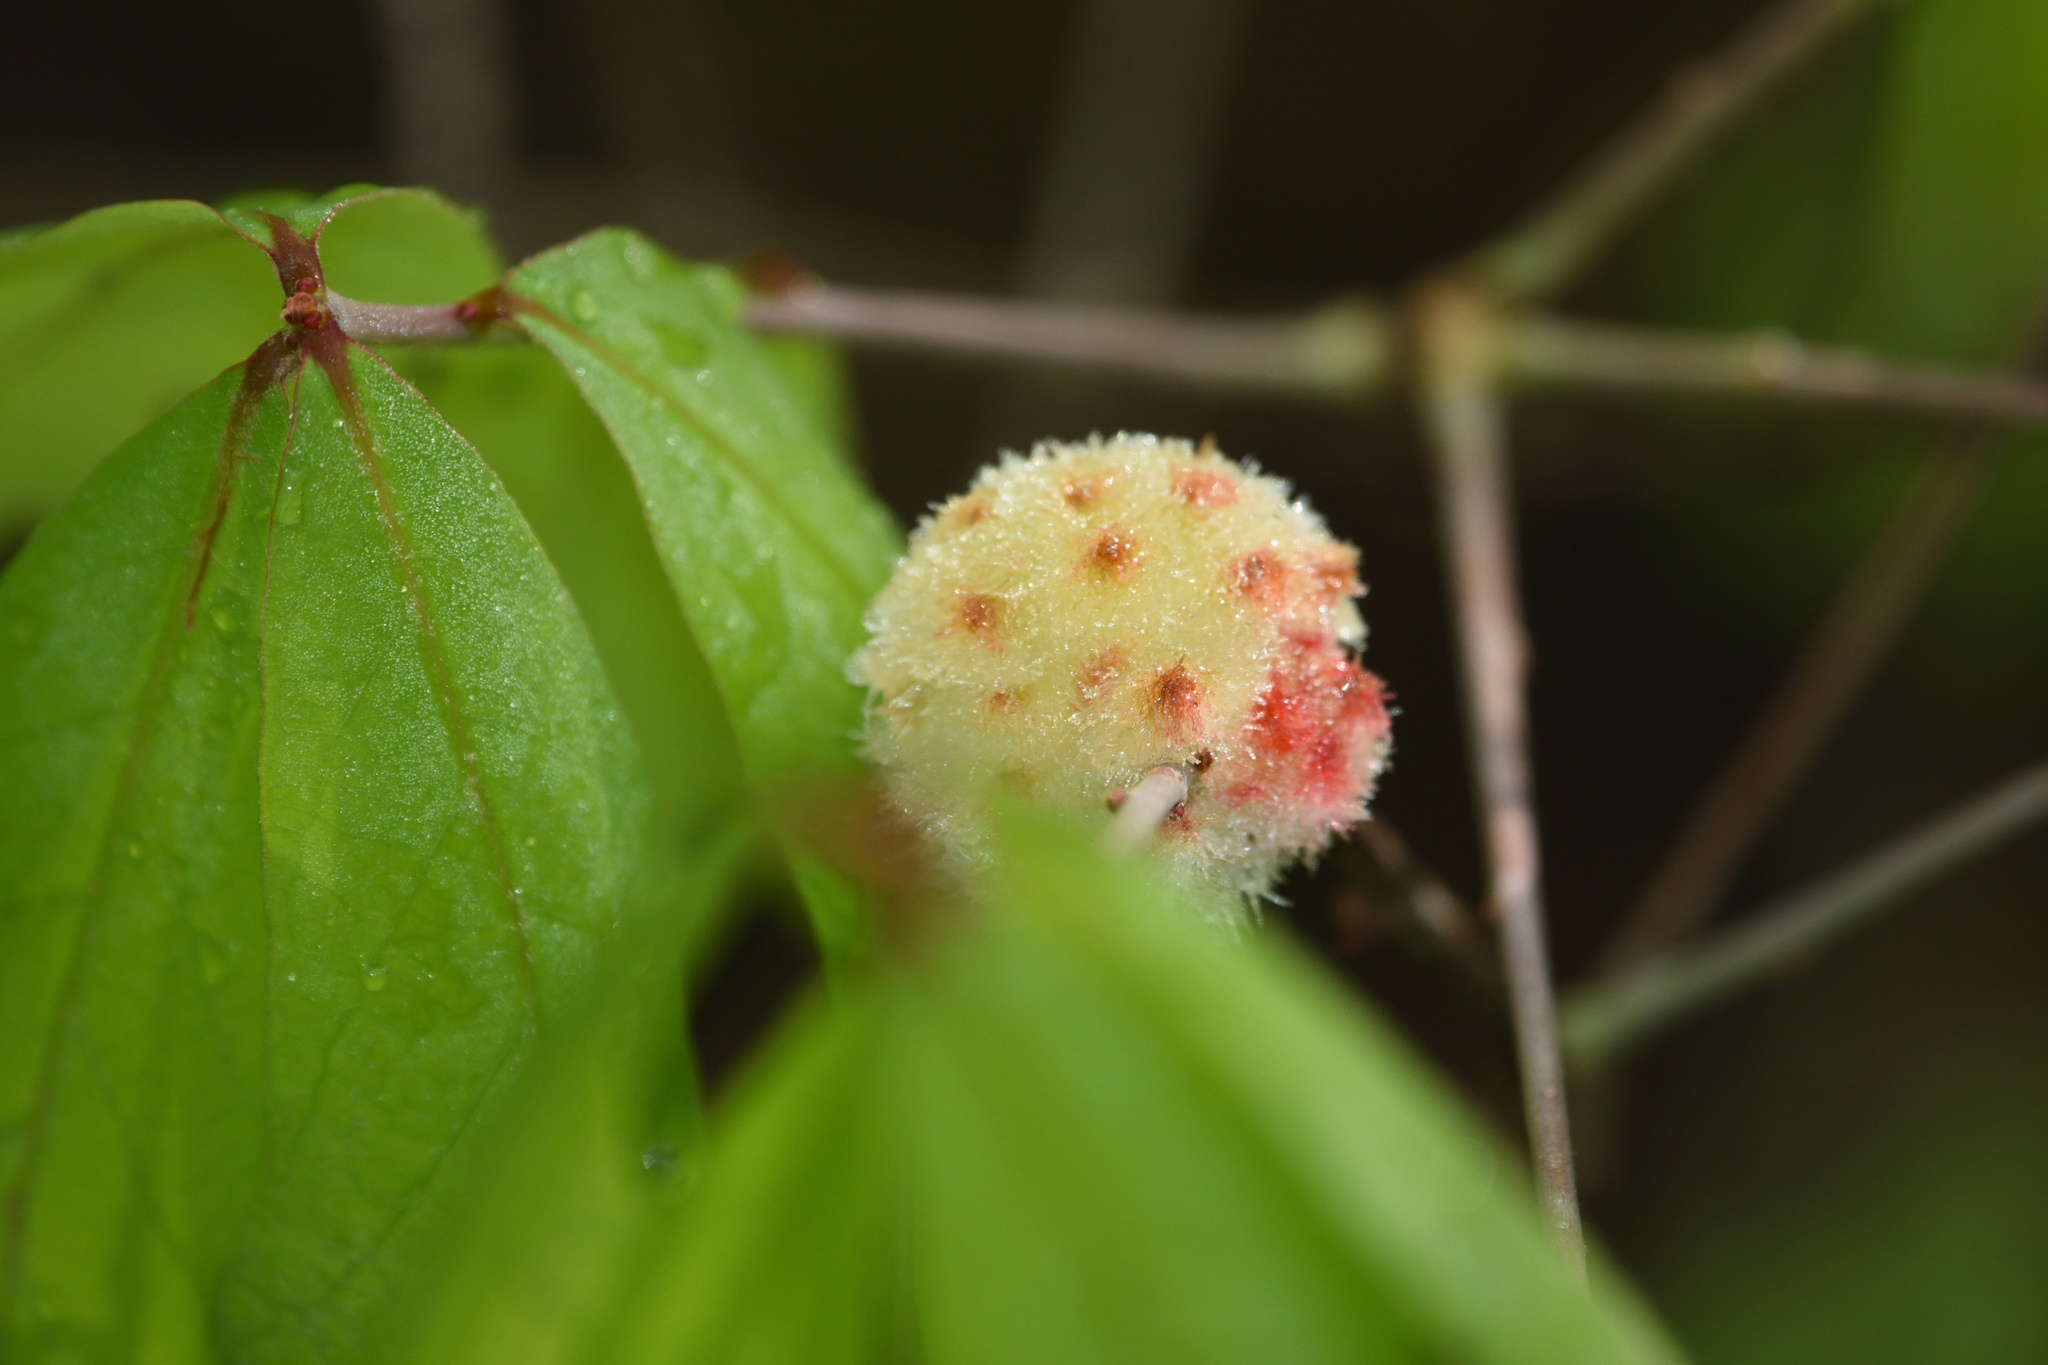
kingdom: Animalia
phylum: Arthropoda
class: Insecta
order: Hymenoptera
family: Cynipidae
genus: Callirhytis
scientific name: Callirhytis
